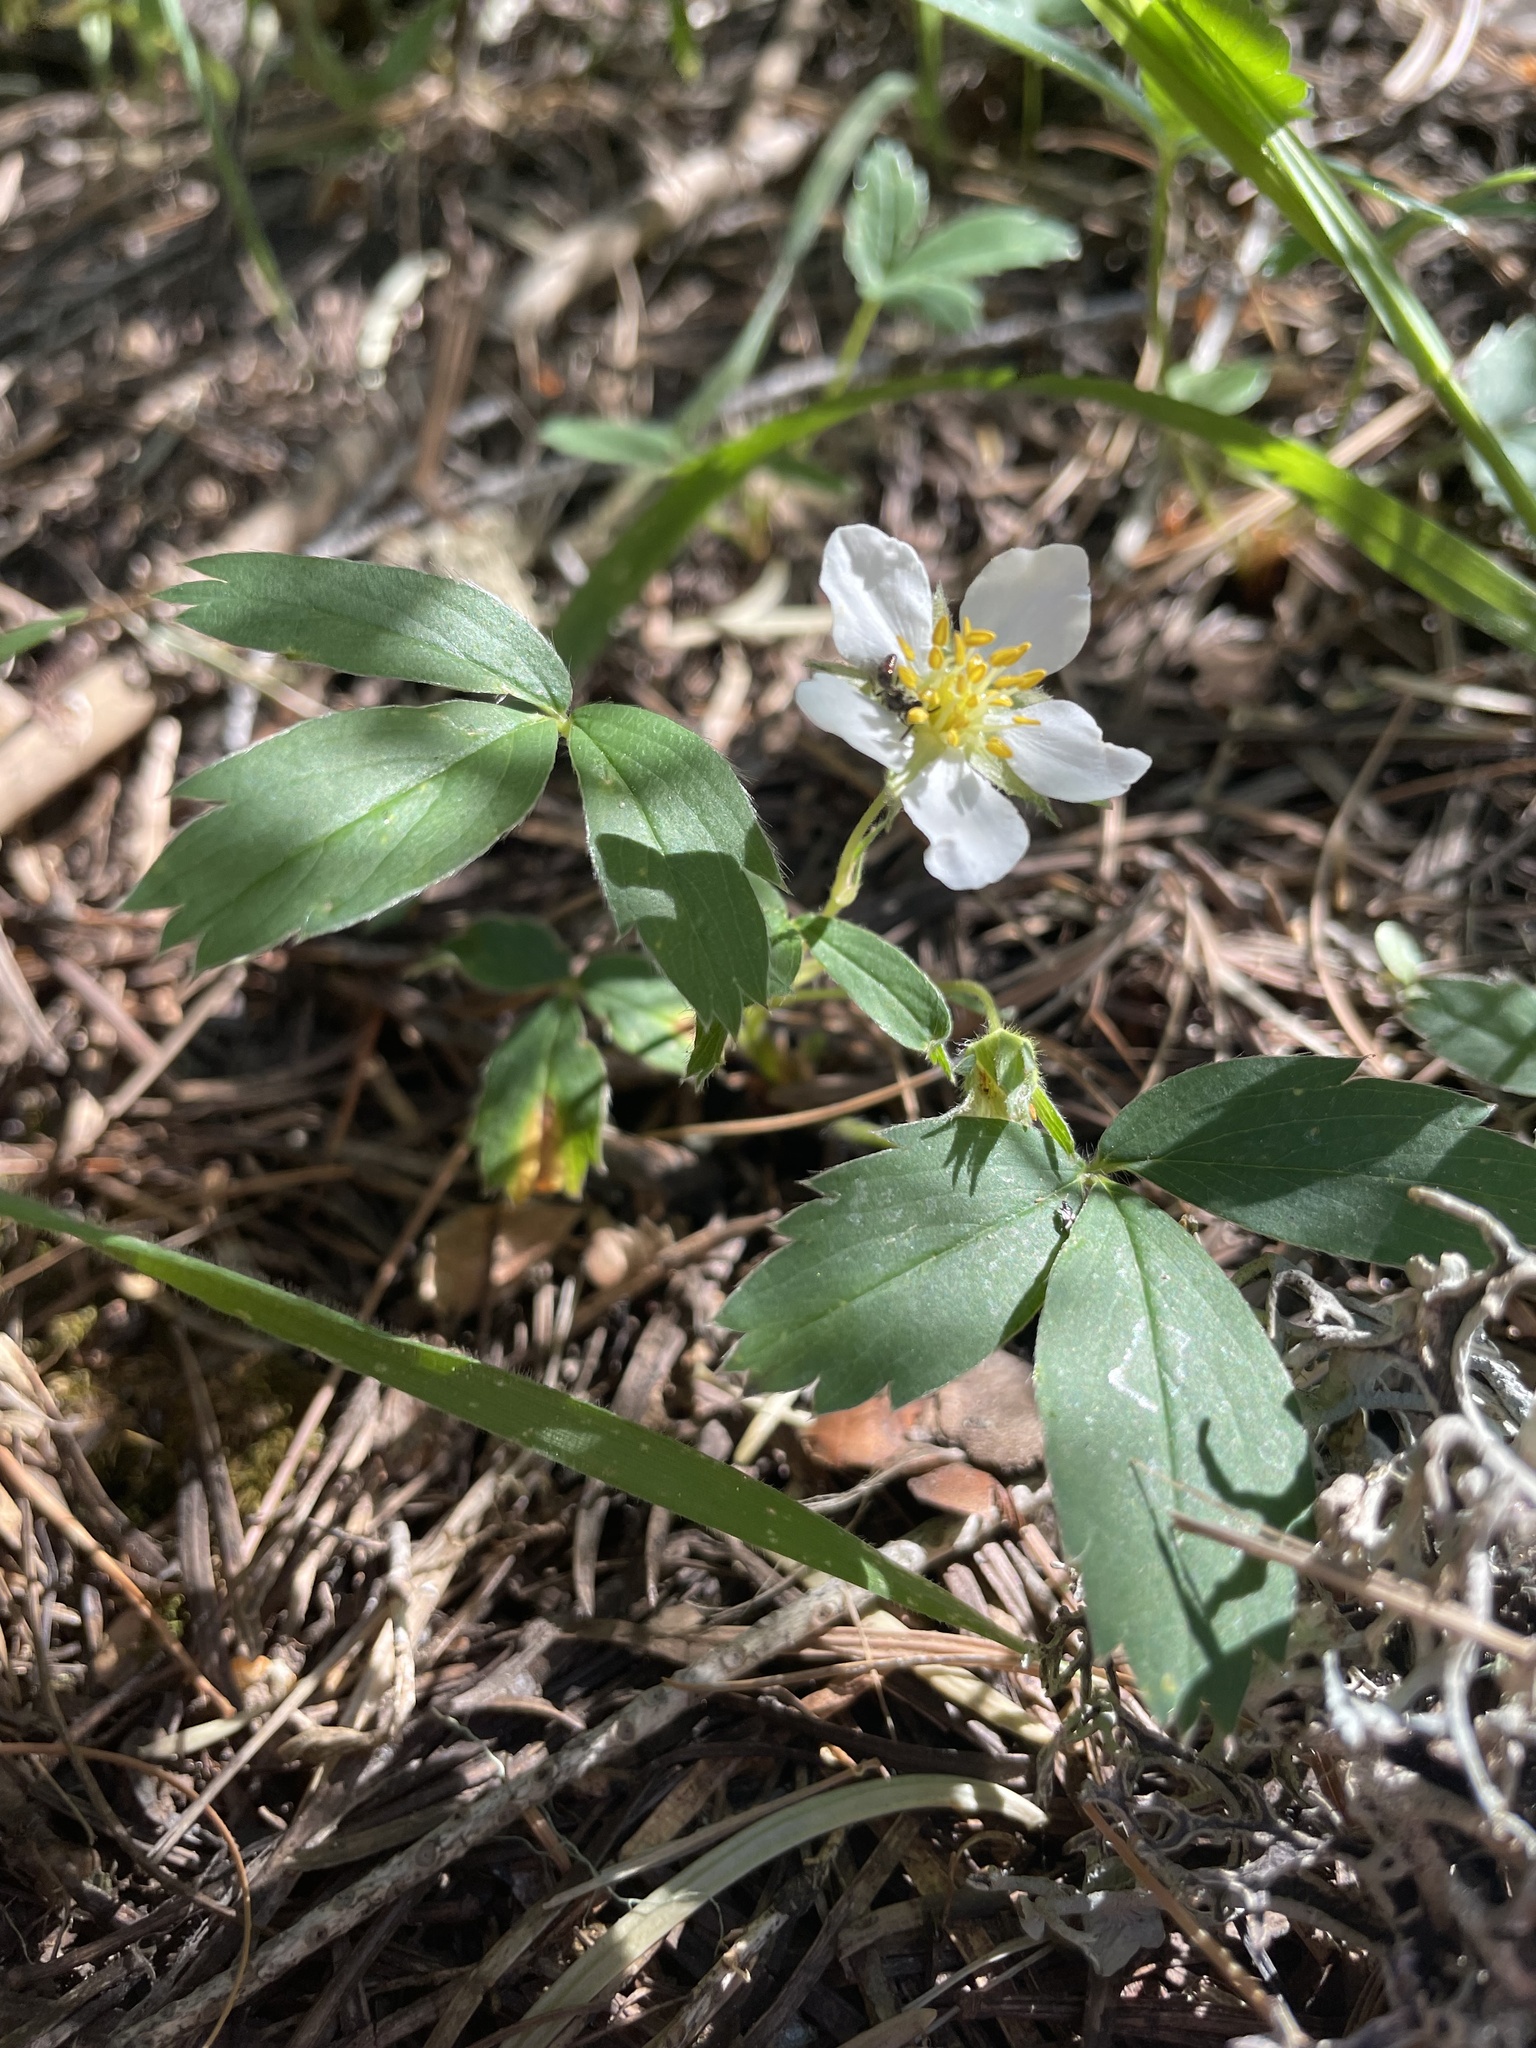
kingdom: Plantae
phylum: Tracheophyta
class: Magnoliopsida
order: Rosales
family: Rosaceae
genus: Fragaria
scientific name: Fragaria virginiana
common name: Thickleaved wild strawberry
